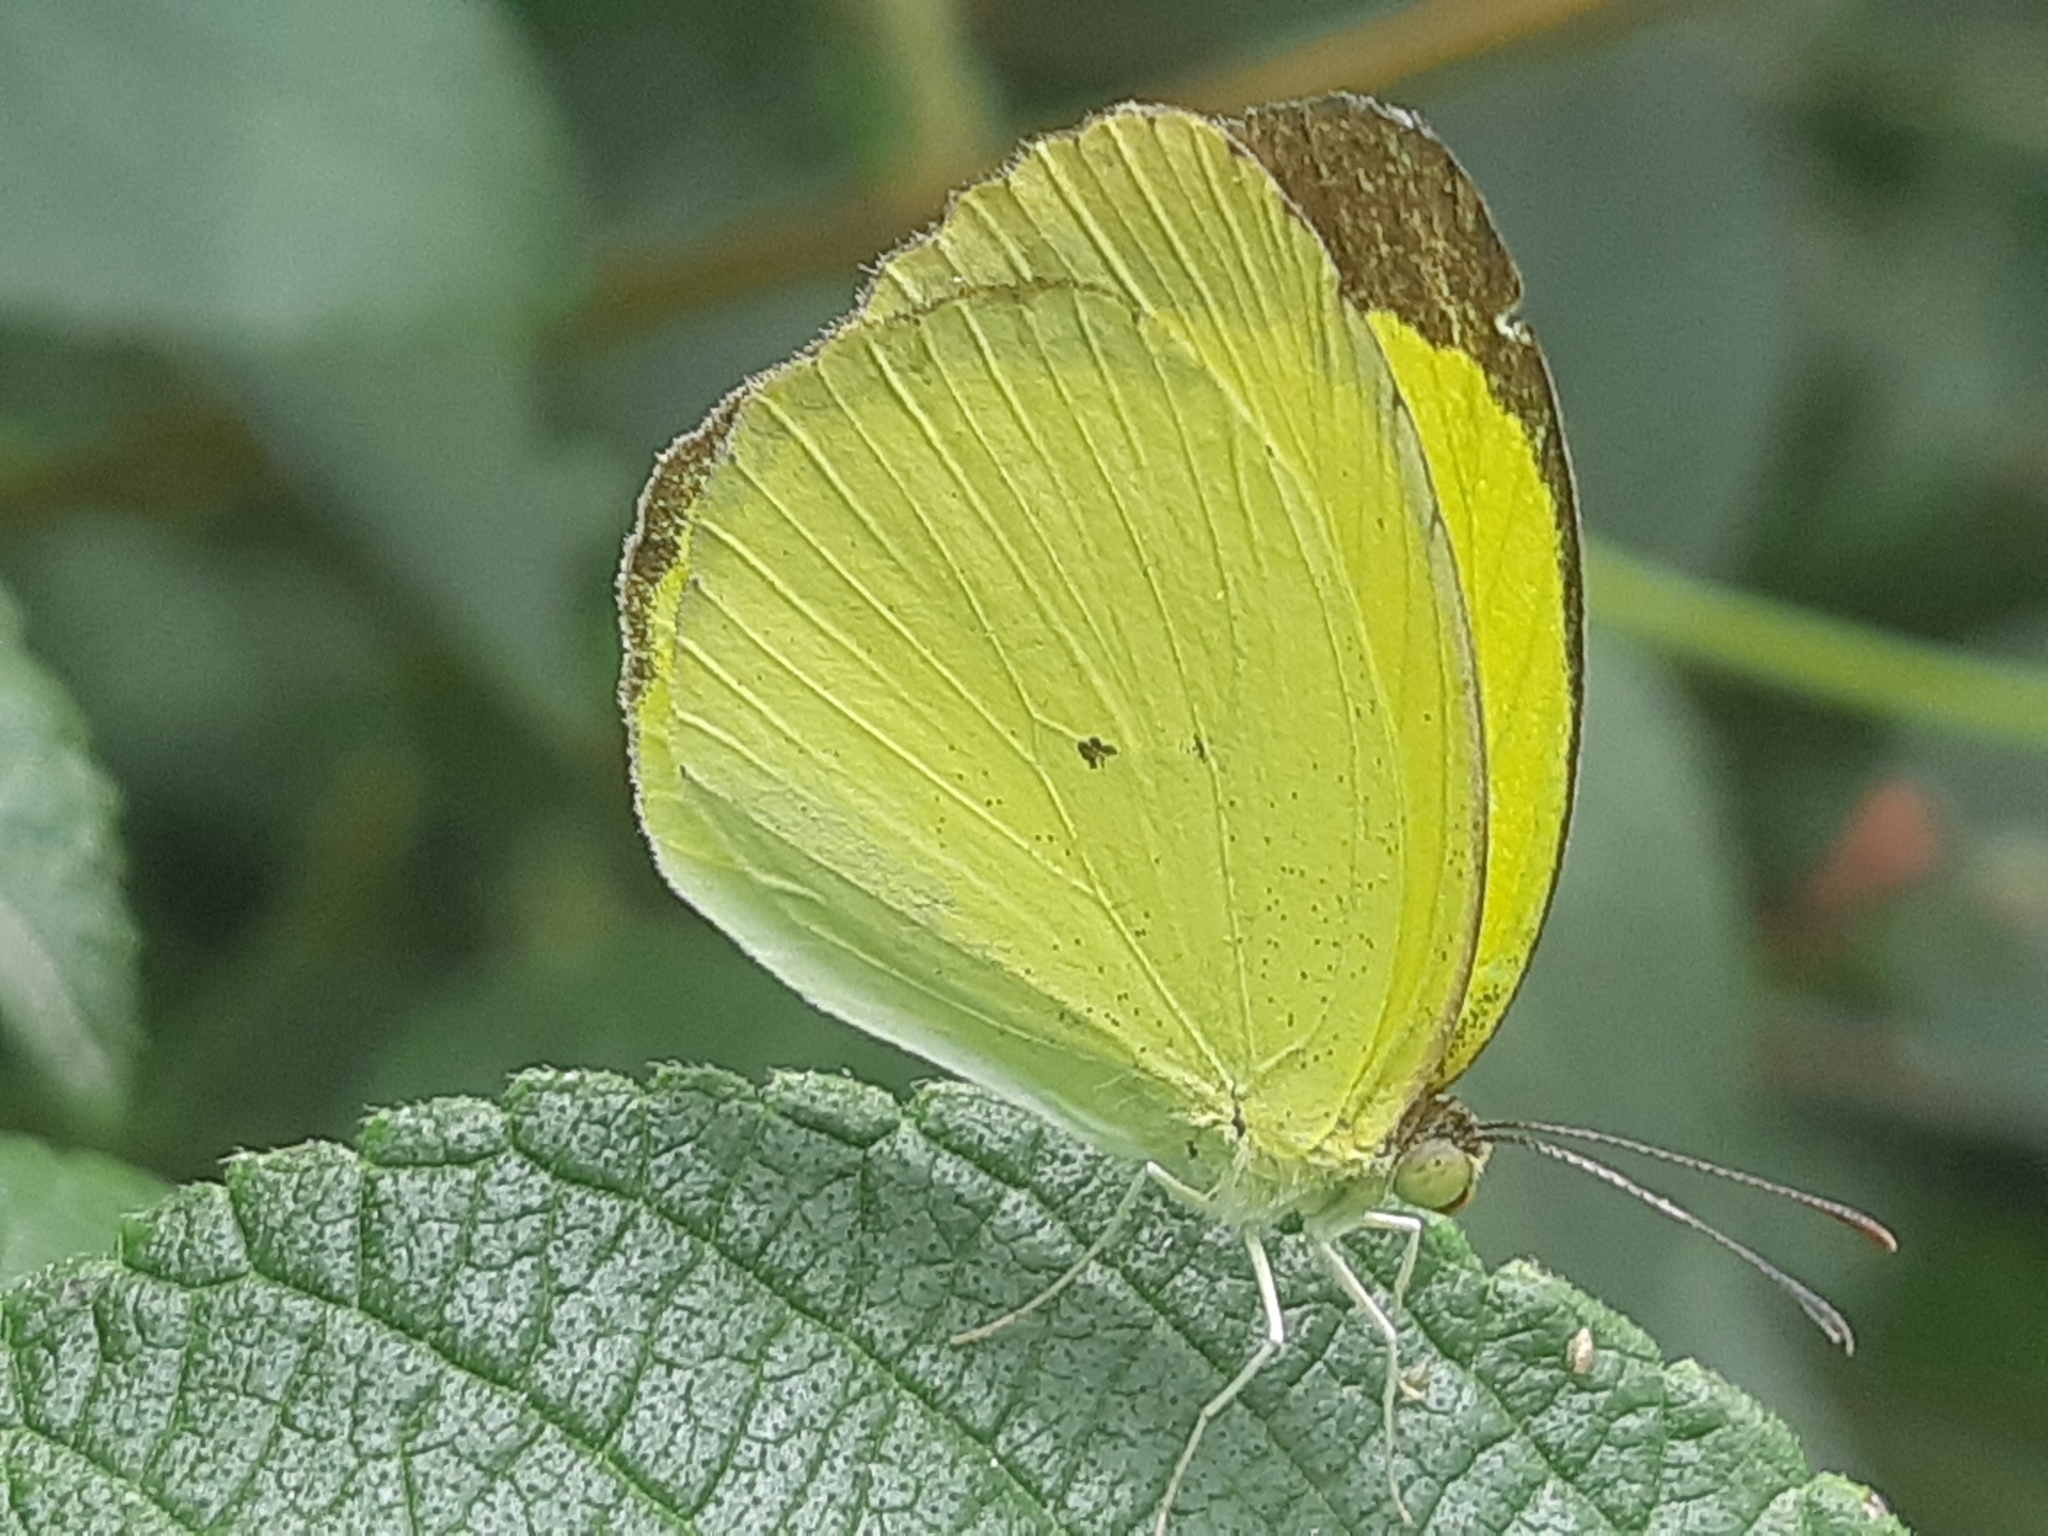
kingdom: Animalia
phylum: Arthropoda
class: Insecta
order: Lepidoptera
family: Pieridae
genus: Pyrisitia
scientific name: Pyrisitia nise
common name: Mimosa yellow
